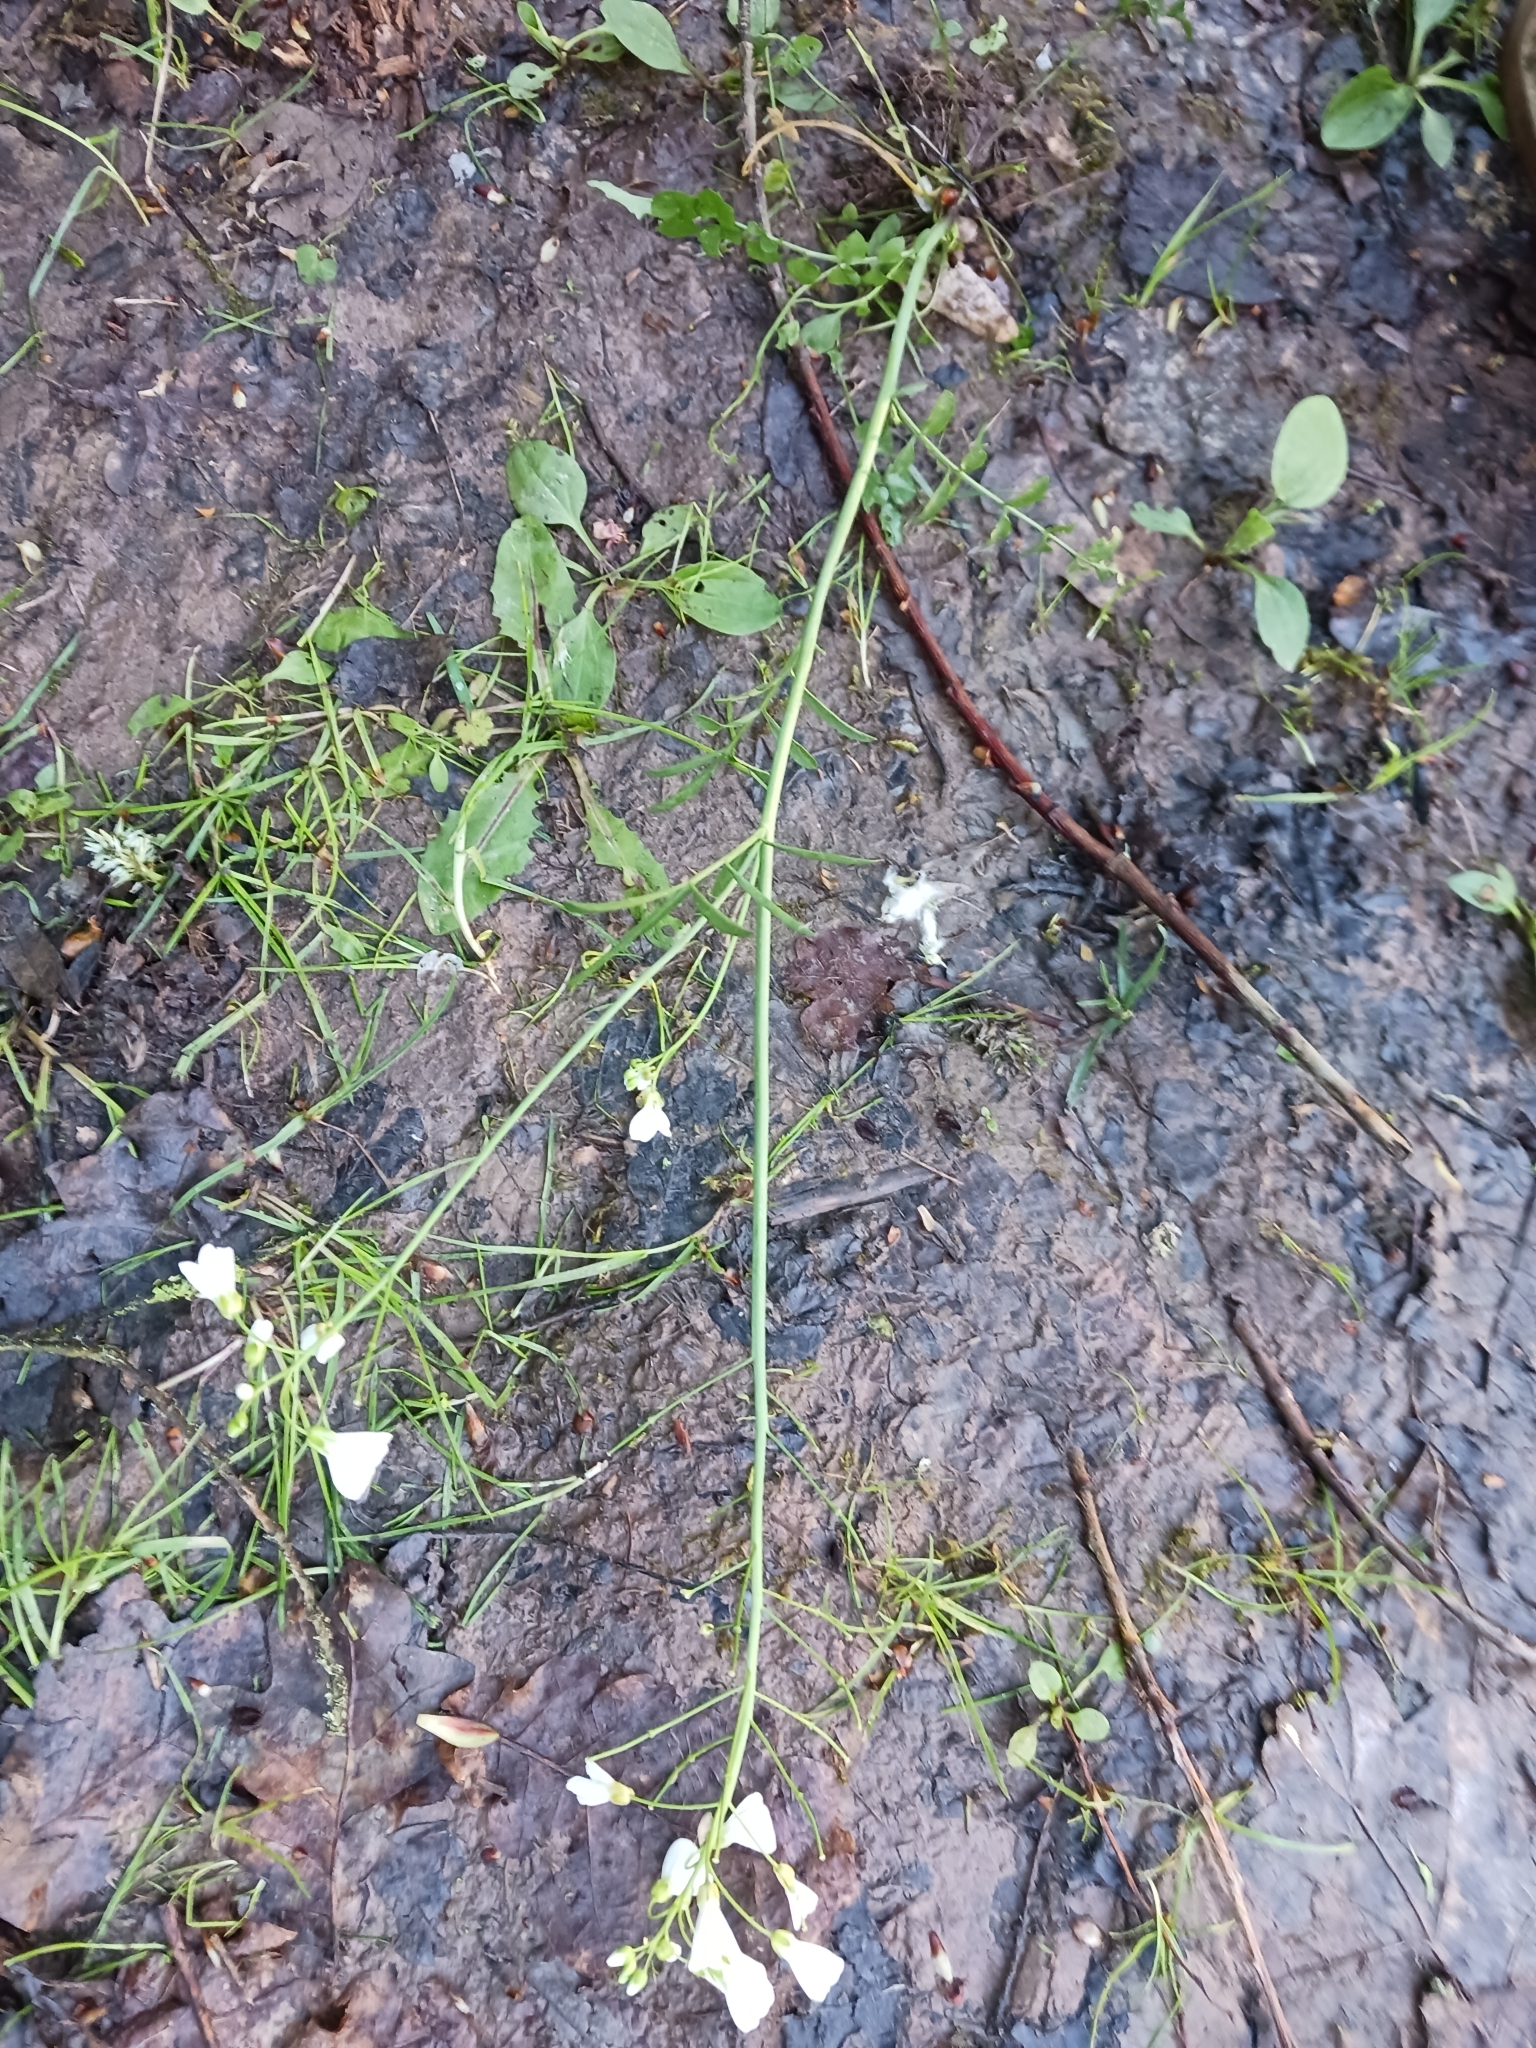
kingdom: Plantae
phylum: Tracheophyta
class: Magnoliopsida
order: Brassicales
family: Brassicaceae
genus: Cardamine
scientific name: Cardamine pratensis
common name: Cuckoo flower
